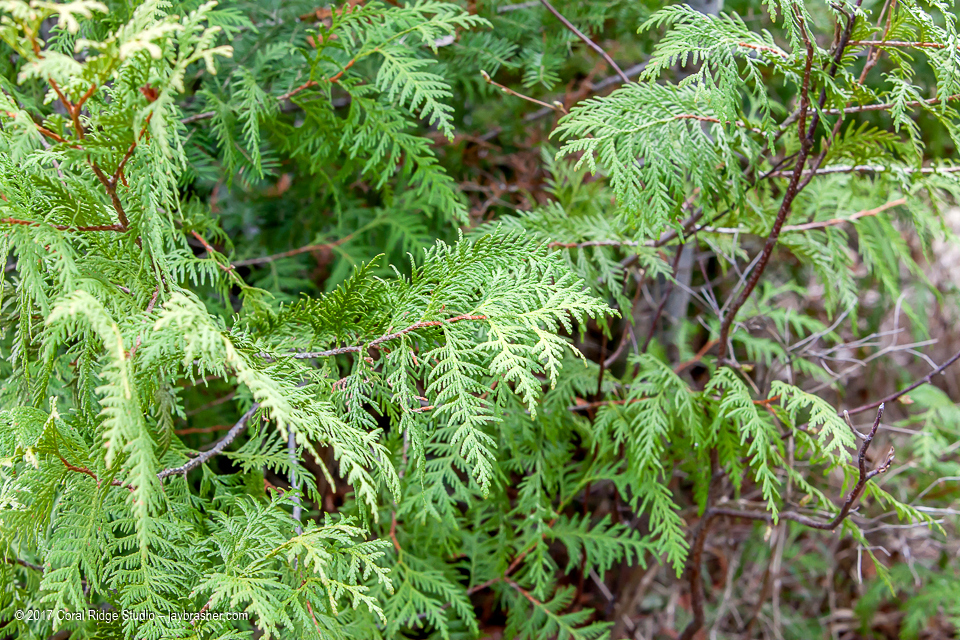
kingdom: Plantae
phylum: Tracheophyta
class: Pinopsida
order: Pinales
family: Cupressaceae
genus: Thuja
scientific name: Thuja occidentalis
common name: Northern white-cedar
